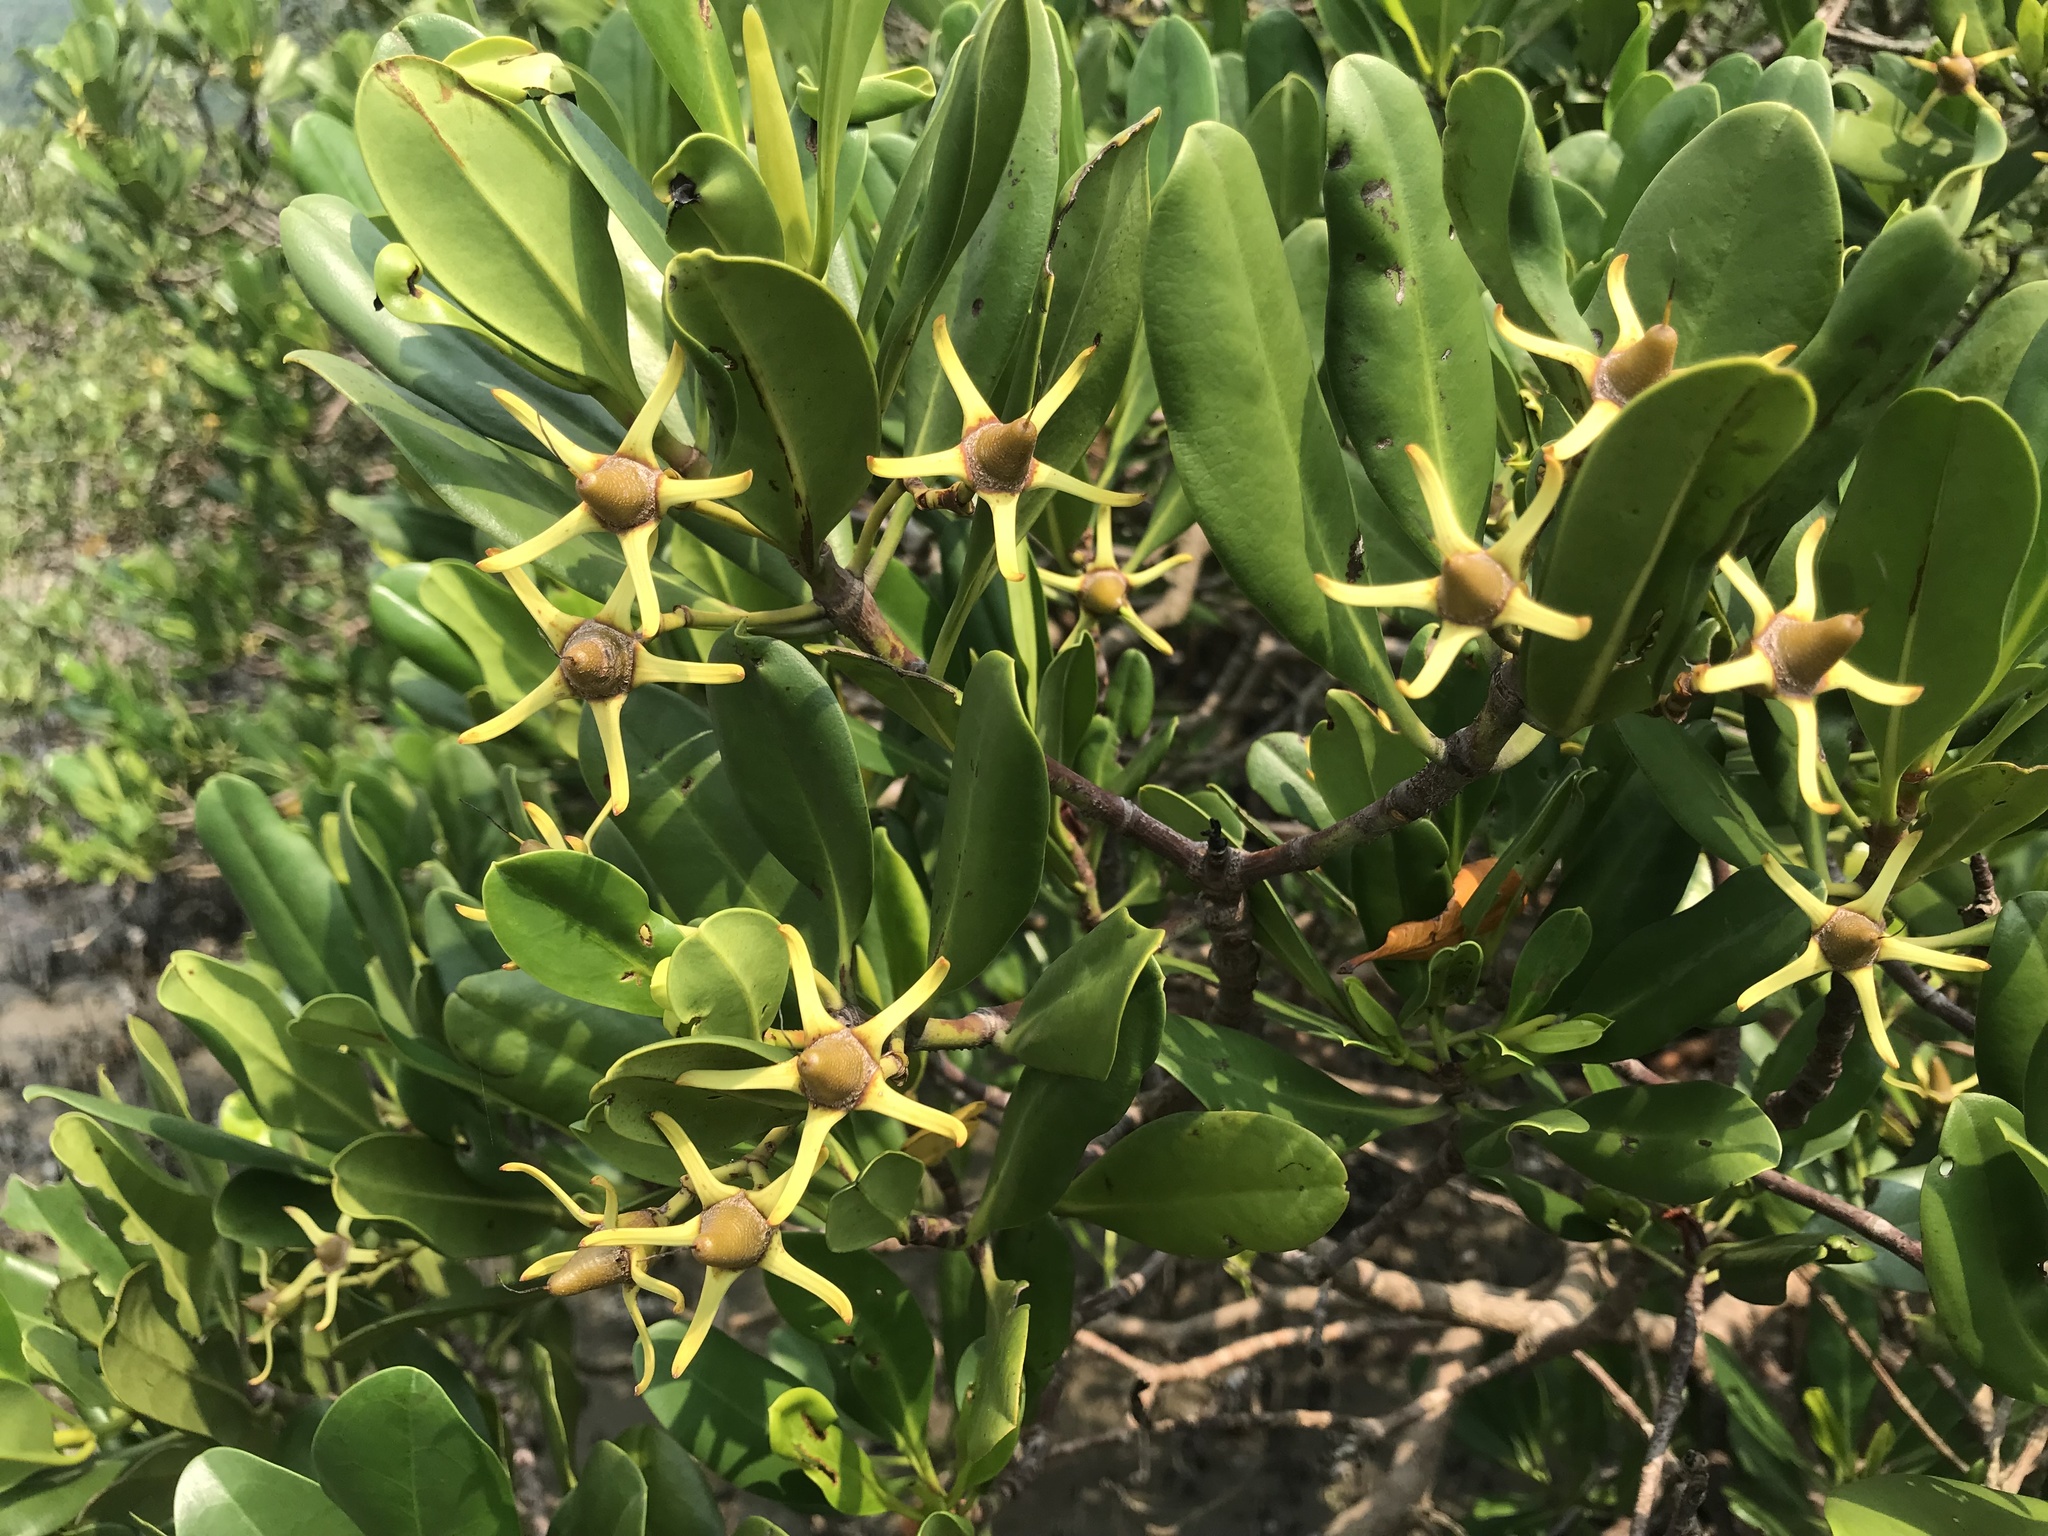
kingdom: Plantae
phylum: Tracheophyta
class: Magnoliopsida
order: Malpighiales
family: Rhizophoraceae
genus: Kandelia
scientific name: Kandelia obovata
